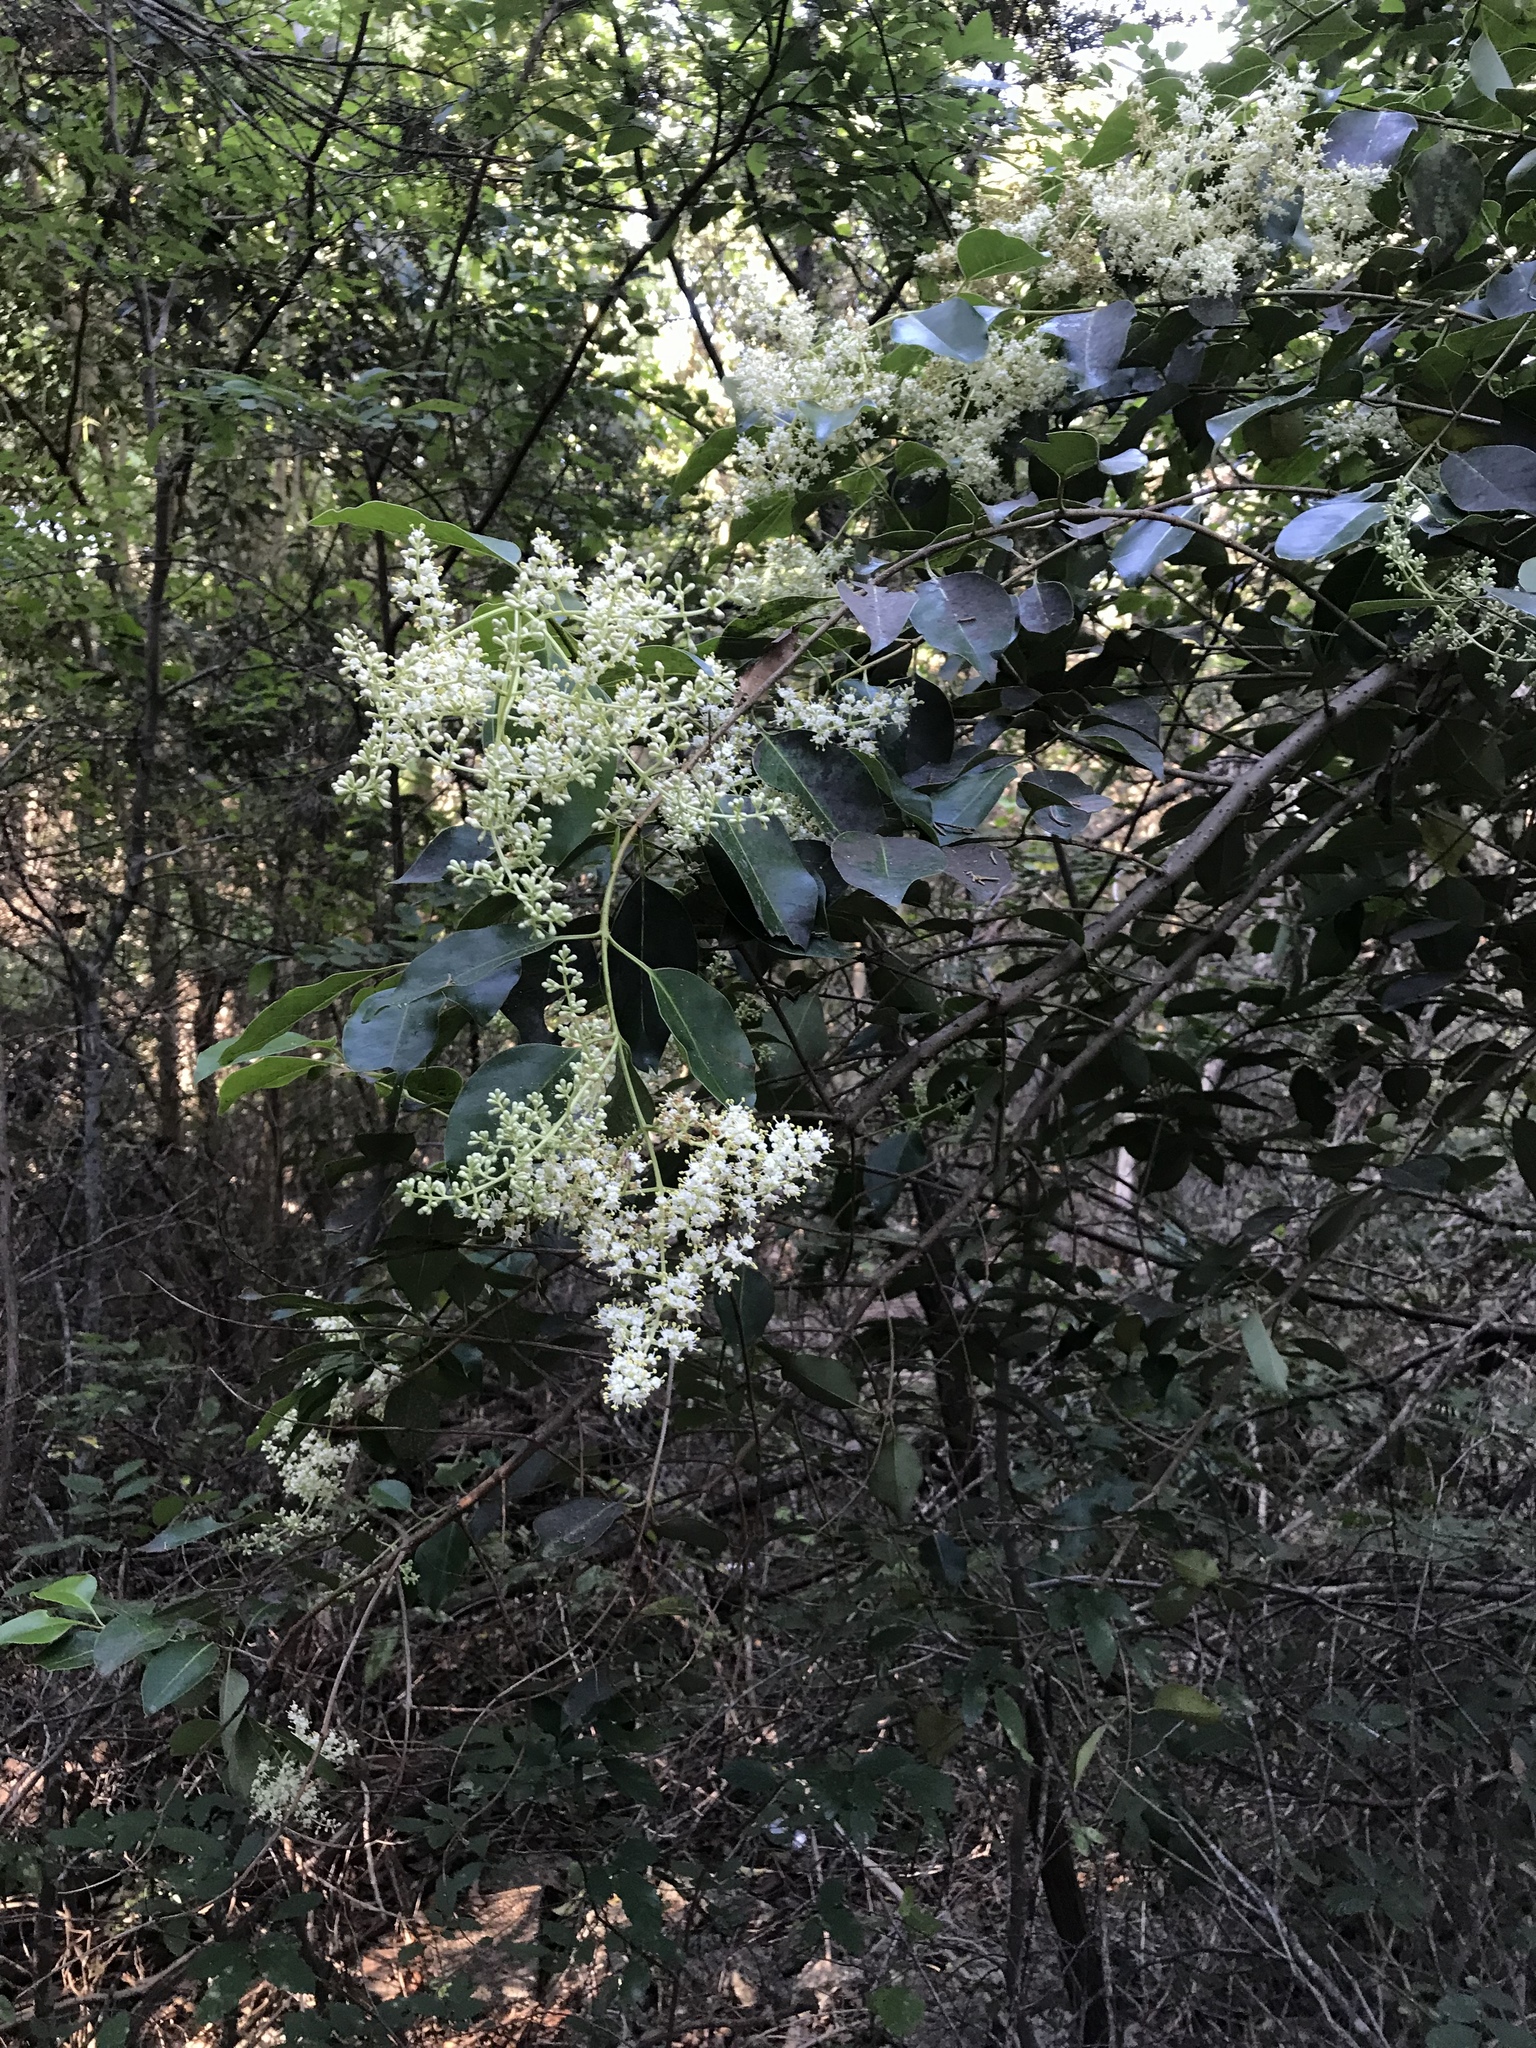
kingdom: Plantae
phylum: Tracheophyta
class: Magnoliopsida
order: Lamiales
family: Oleaceae
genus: Ligustrum
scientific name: Ligustrum lucidum
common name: Glossy privet
